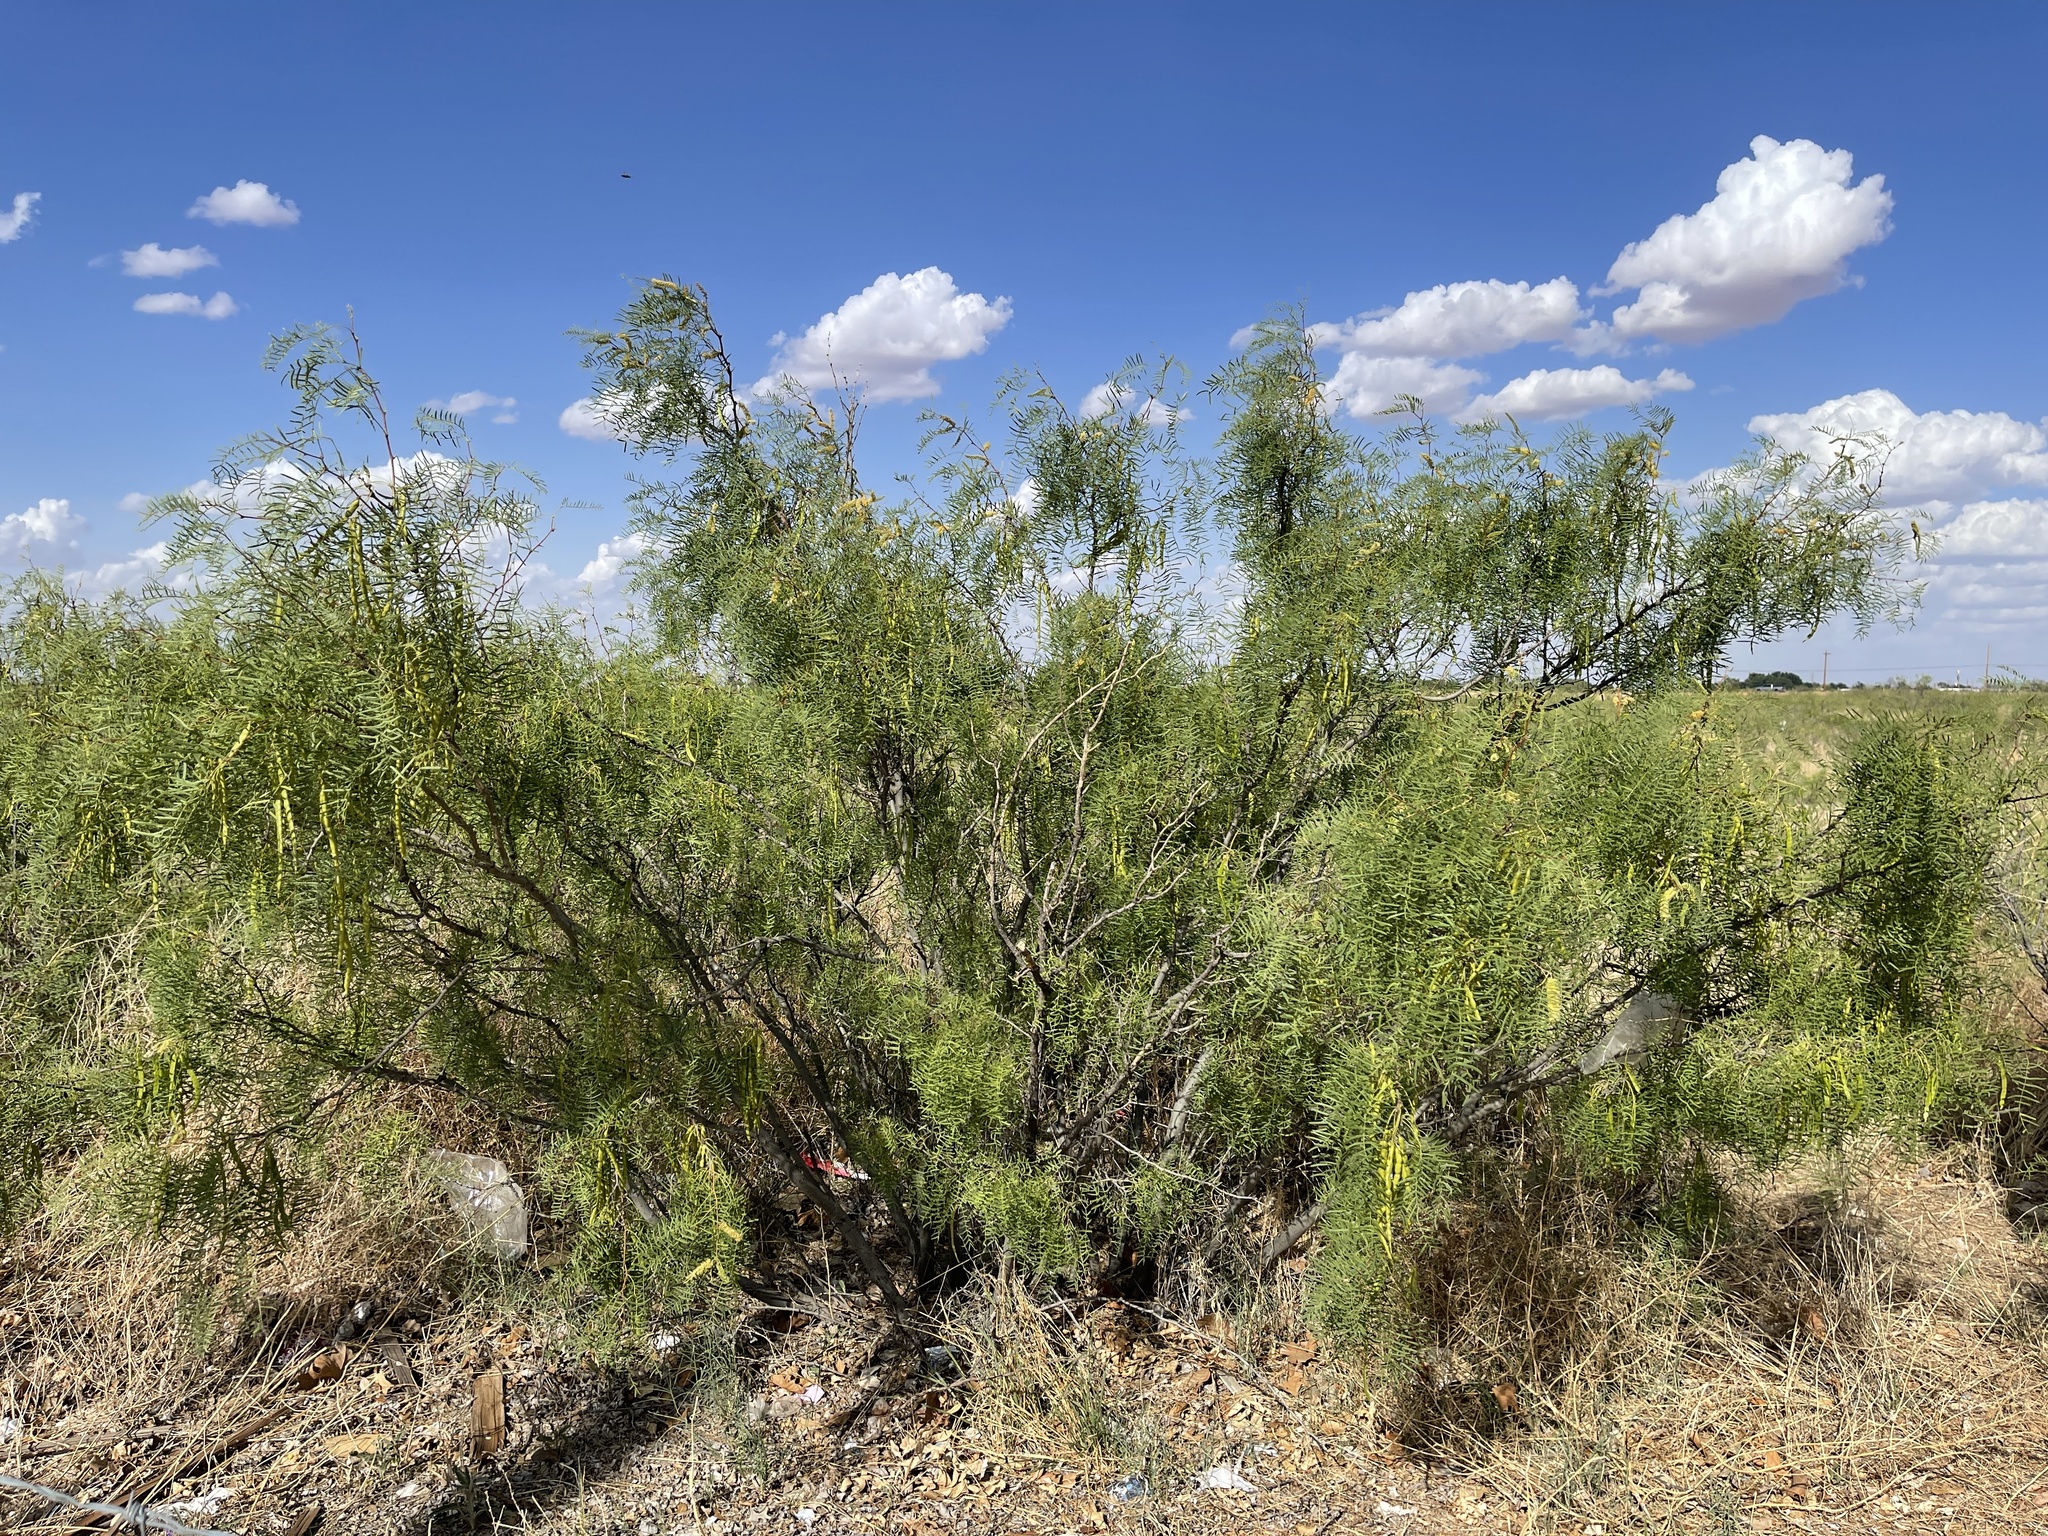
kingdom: Plantae
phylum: Tracheophyta
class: Magnoliopsida
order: Fabales
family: Fabaceae
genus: Prosopis
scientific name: Prosopis glandulosa
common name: Honey mesquite
